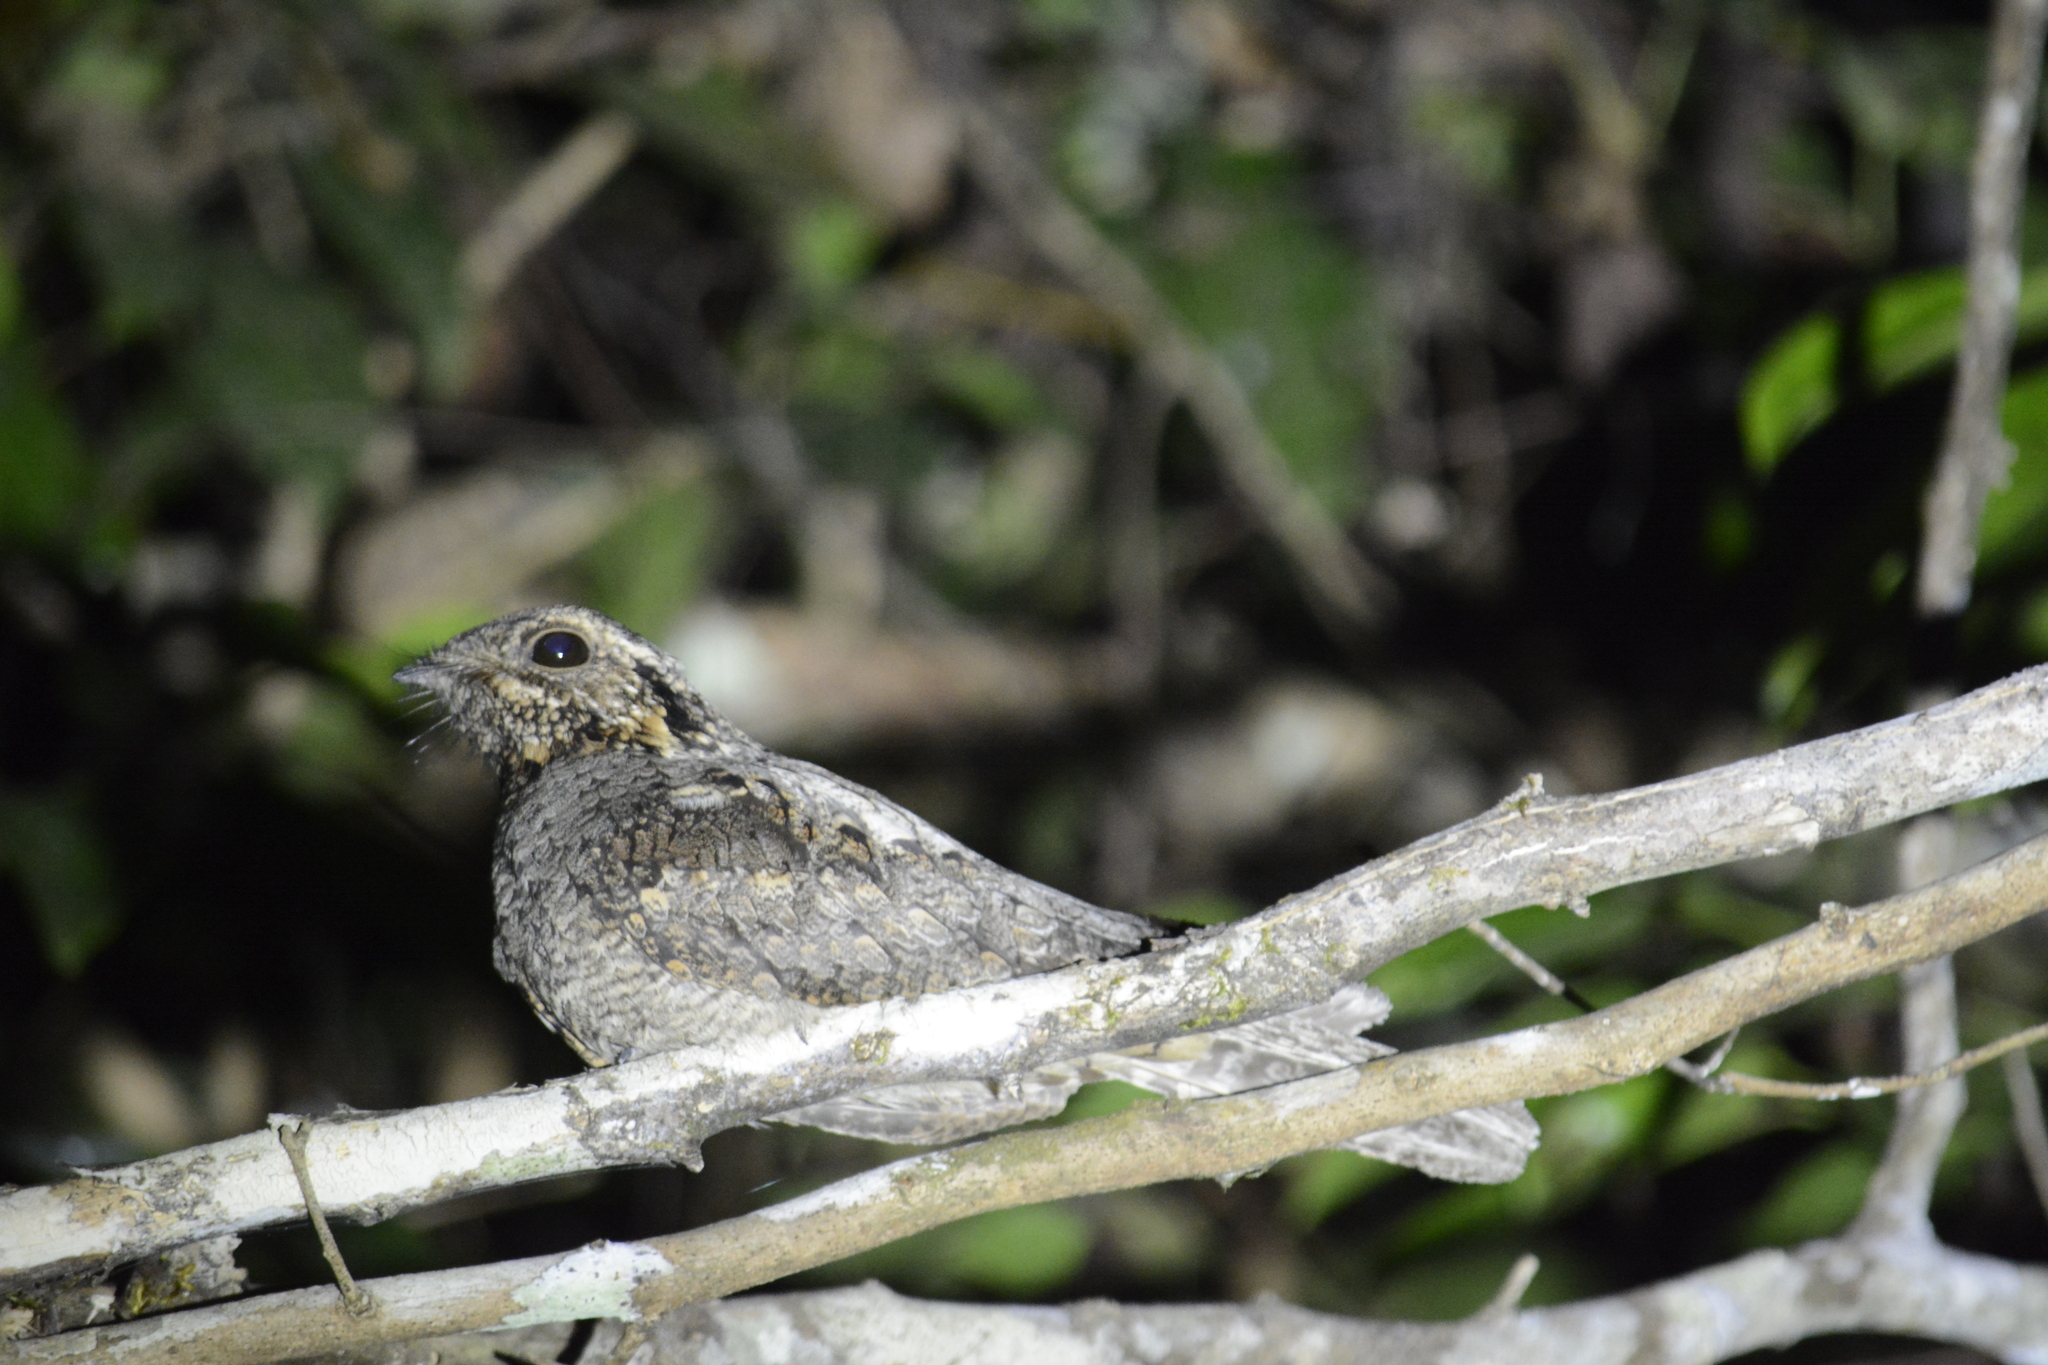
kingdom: Animalia
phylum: Chordata
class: Aves
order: Caprimulgiformes
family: Caprimulgidae
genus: Caprimulgus
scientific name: Caprimulgus indicus
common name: Jungle nightjar
